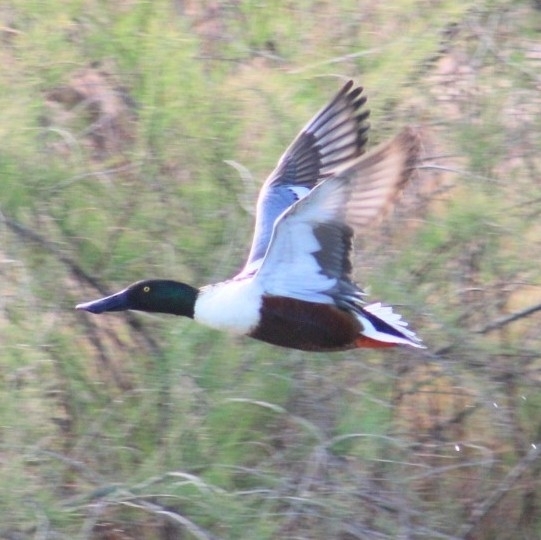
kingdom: Animalia
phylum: Chordata
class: Aves
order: Anseriformes
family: Anatidae
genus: Spatula
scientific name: Spatula clypeata
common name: Northern shoveler
